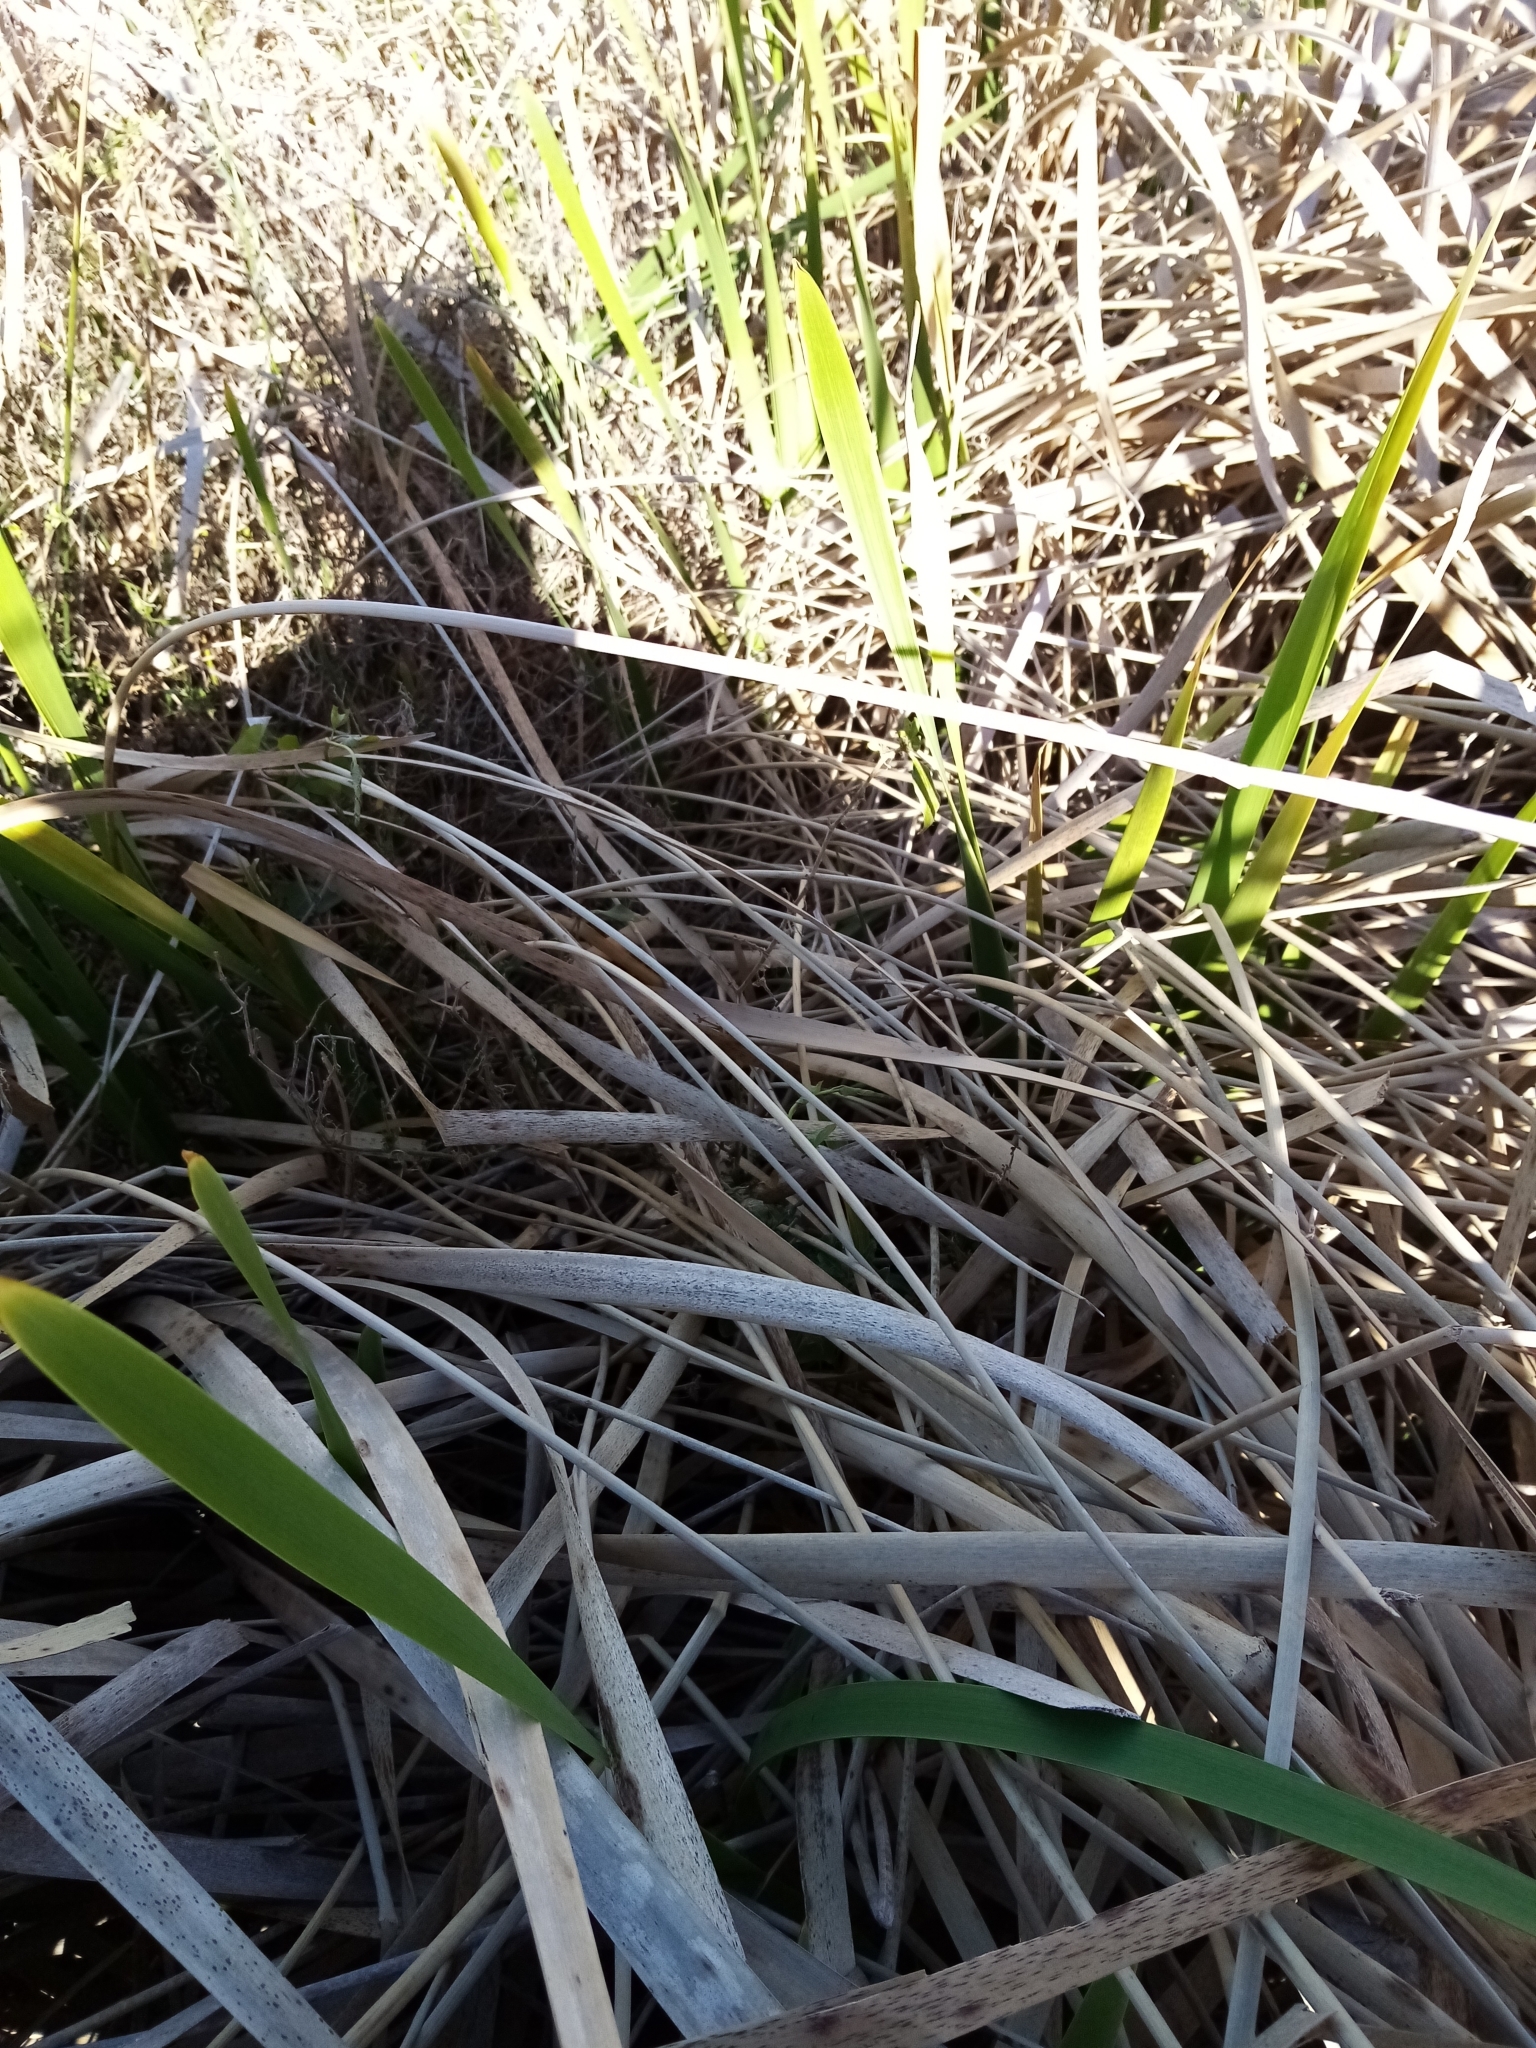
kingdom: Plantae
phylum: Tracheophyta
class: Liliopsida
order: Poales
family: Cyperaceae
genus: Schoenoplectus
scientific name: Schoenoplectus tabernaemontani
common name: Grey club-rush
